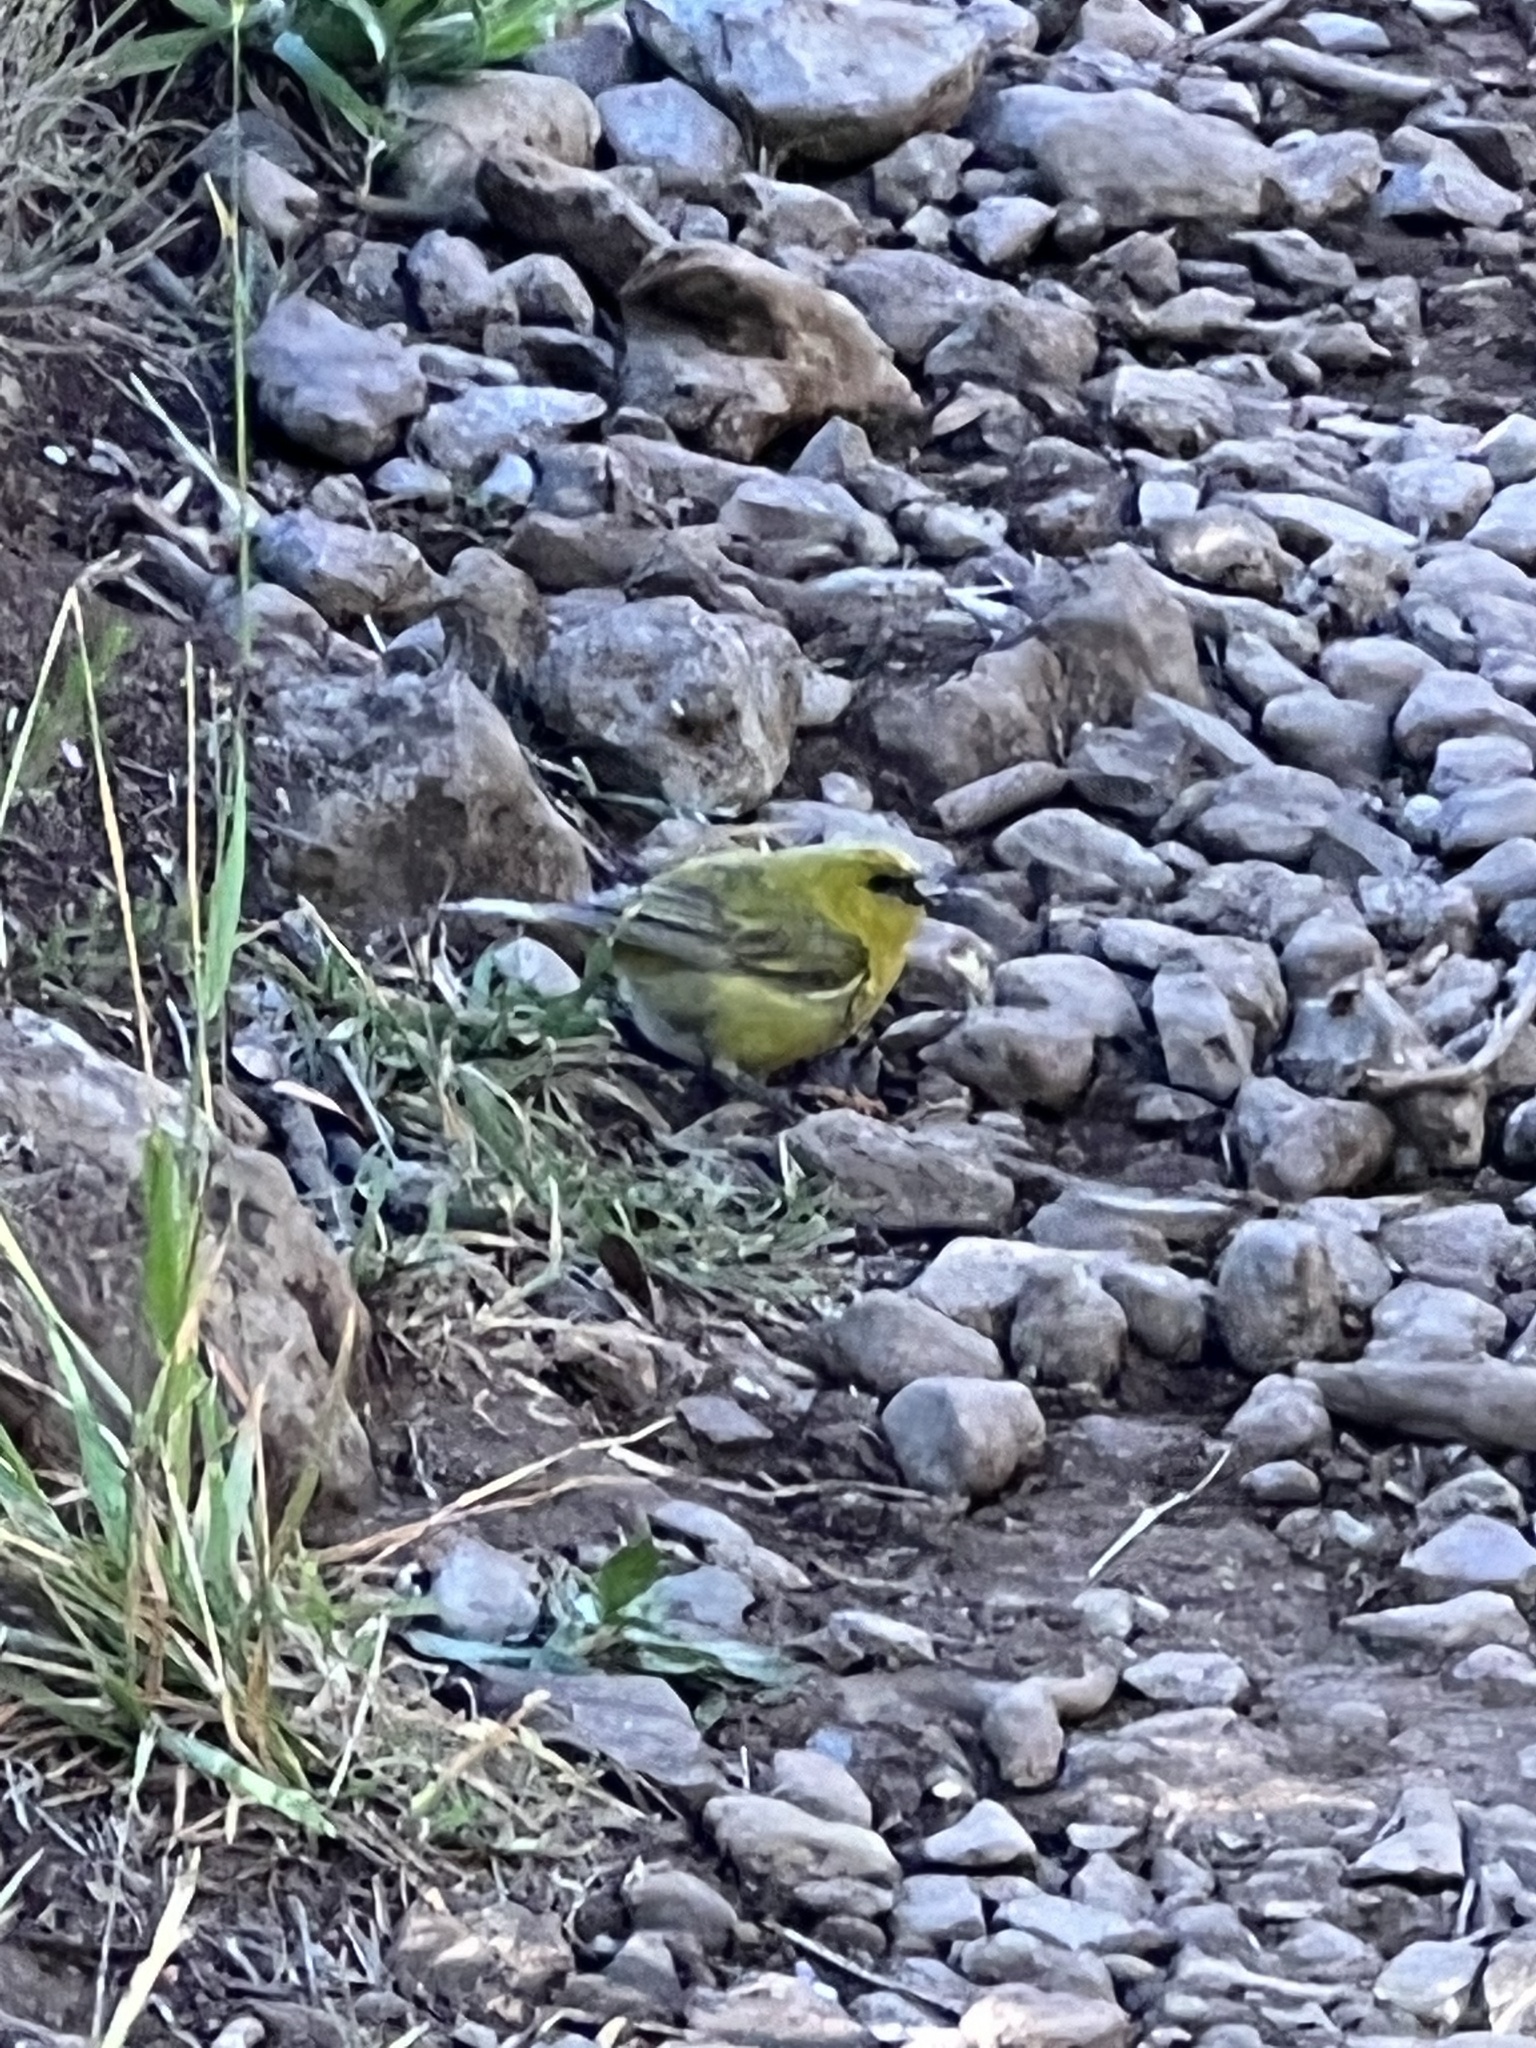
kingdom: Animalia
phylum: Chordata
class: Aves
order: Passeriformes
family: Fringillidae
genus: Chlorodrepanis
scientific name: Chlorodrepanis virens
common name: Hawaii amakihi
